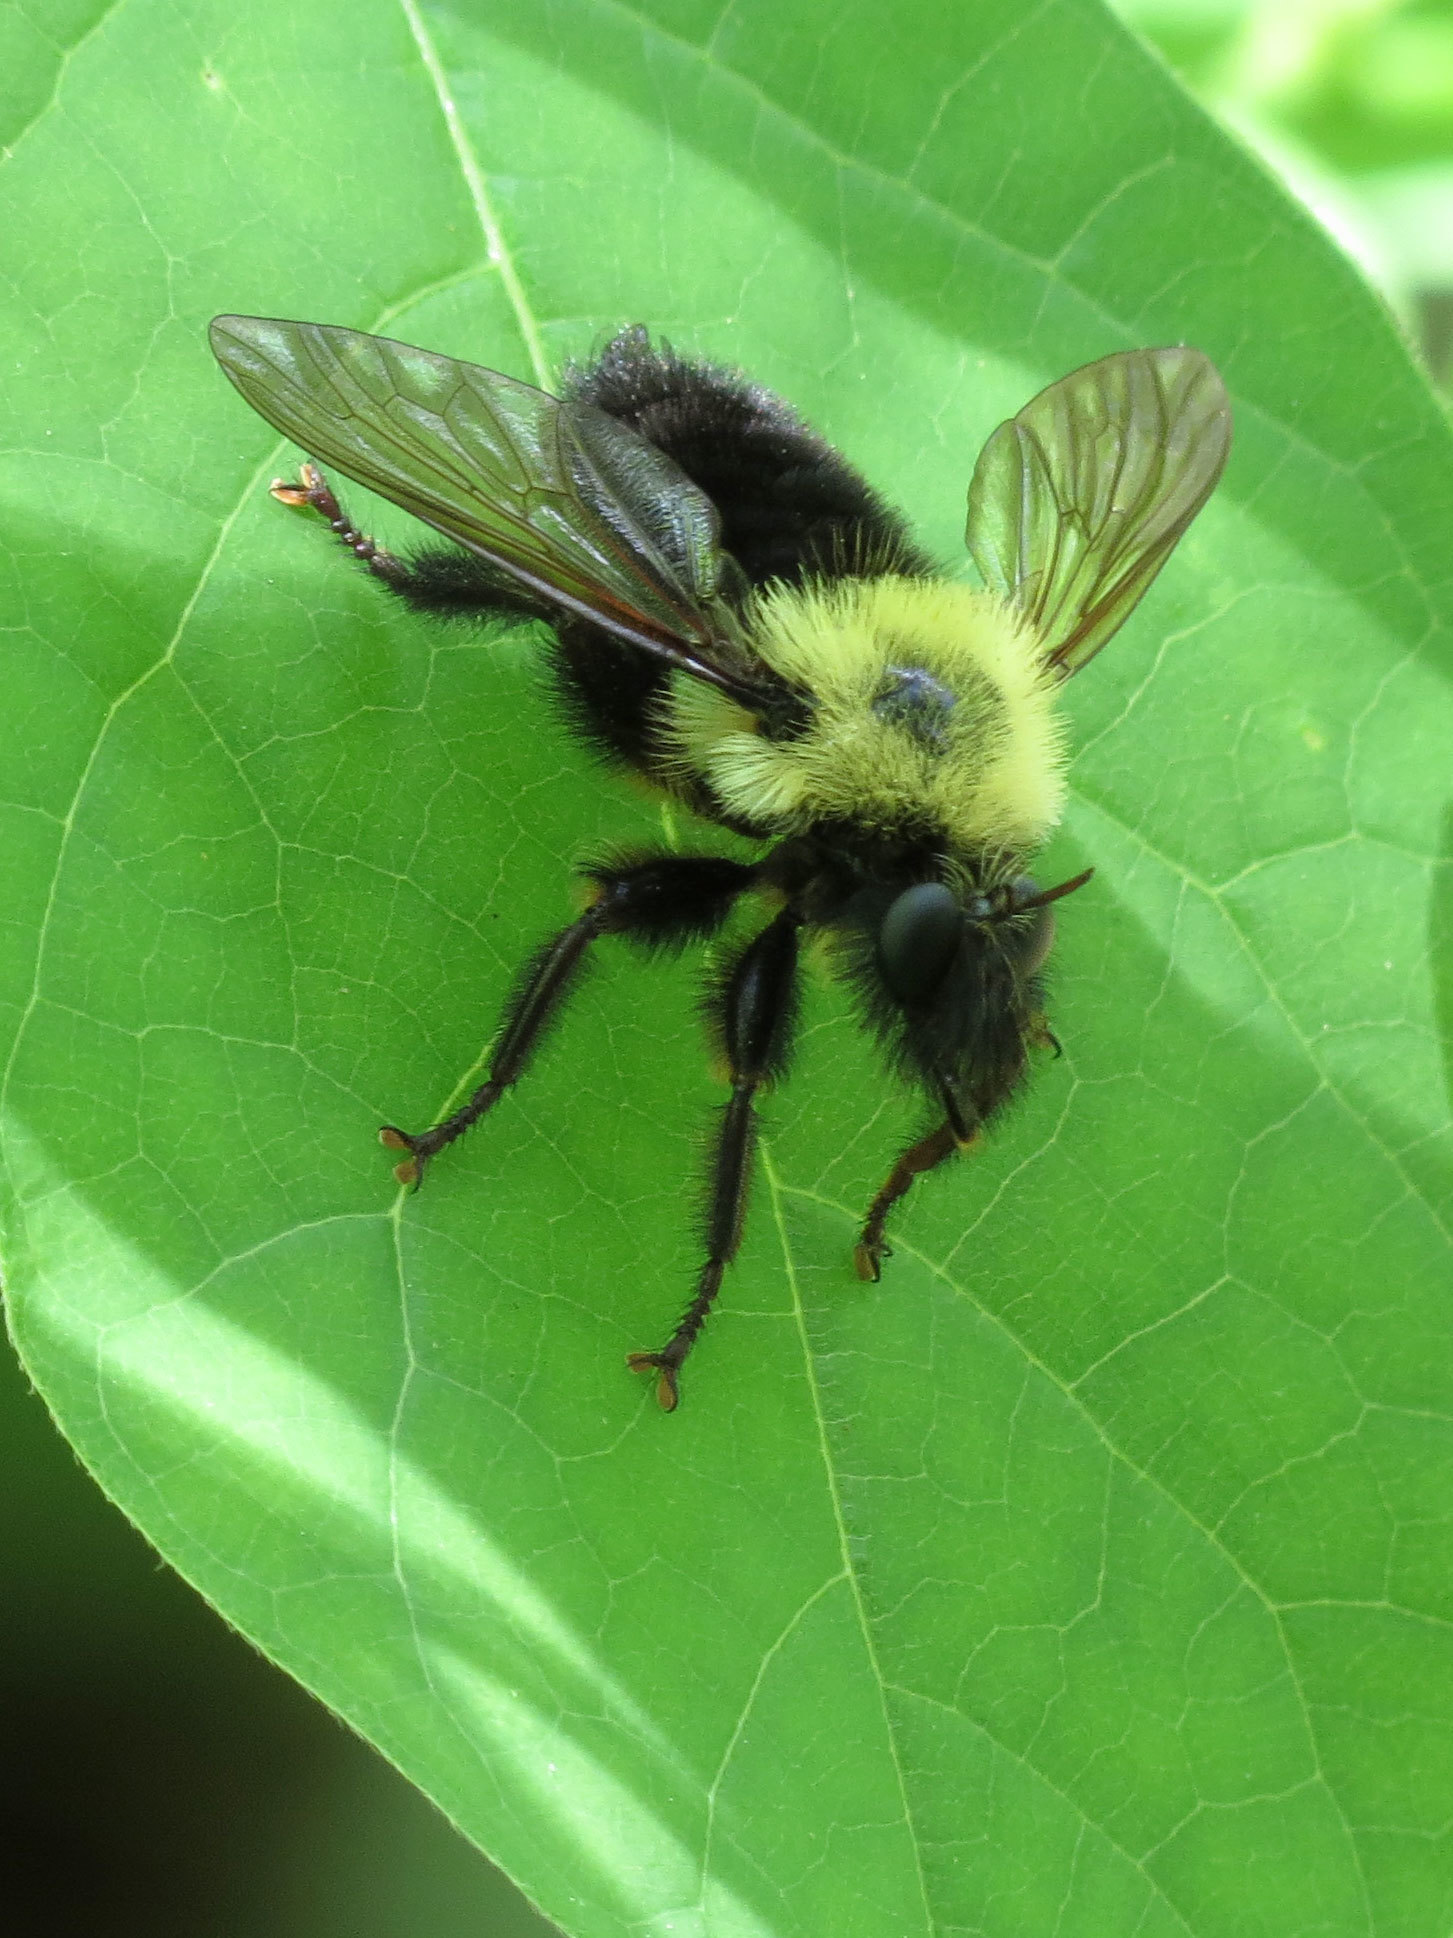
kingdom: Animalia
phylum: Arthropoda
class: Insecta
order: Diptera
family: Asilidae
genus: Laphria
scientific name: Laphria thoracica
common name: Bumble bee mimic robber fly
